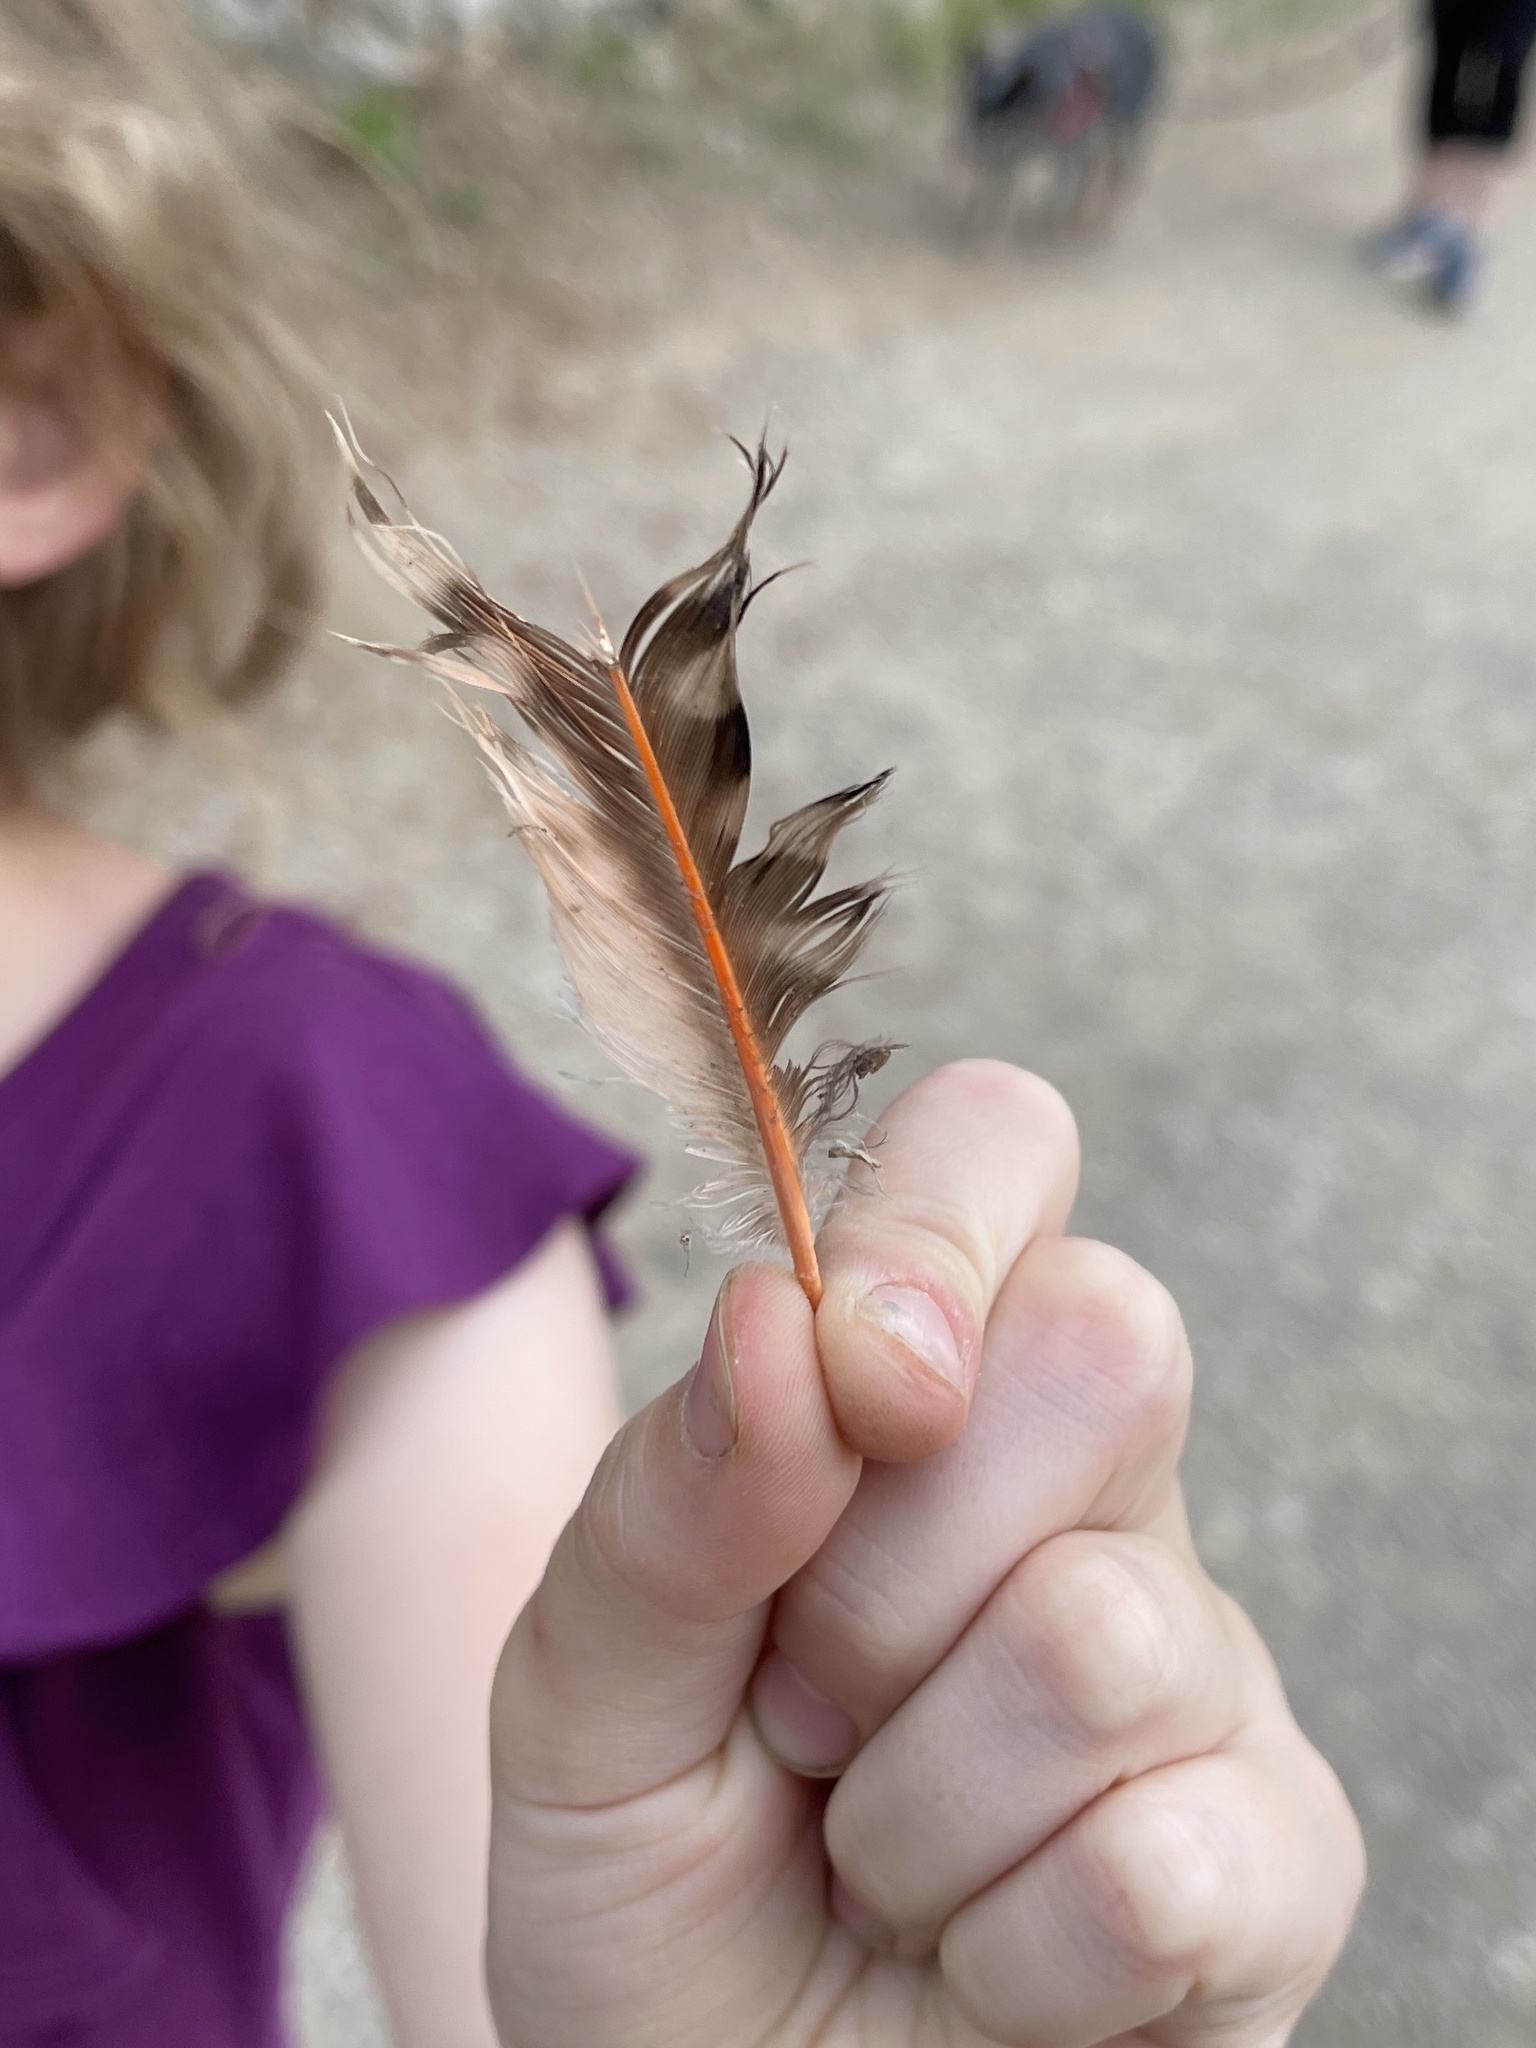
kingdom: Animalia
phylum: Chordata
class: Aves
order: Piciformes
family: Picidae
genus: Colaptes
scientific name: Colaptes auratus
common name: Northern flicker
